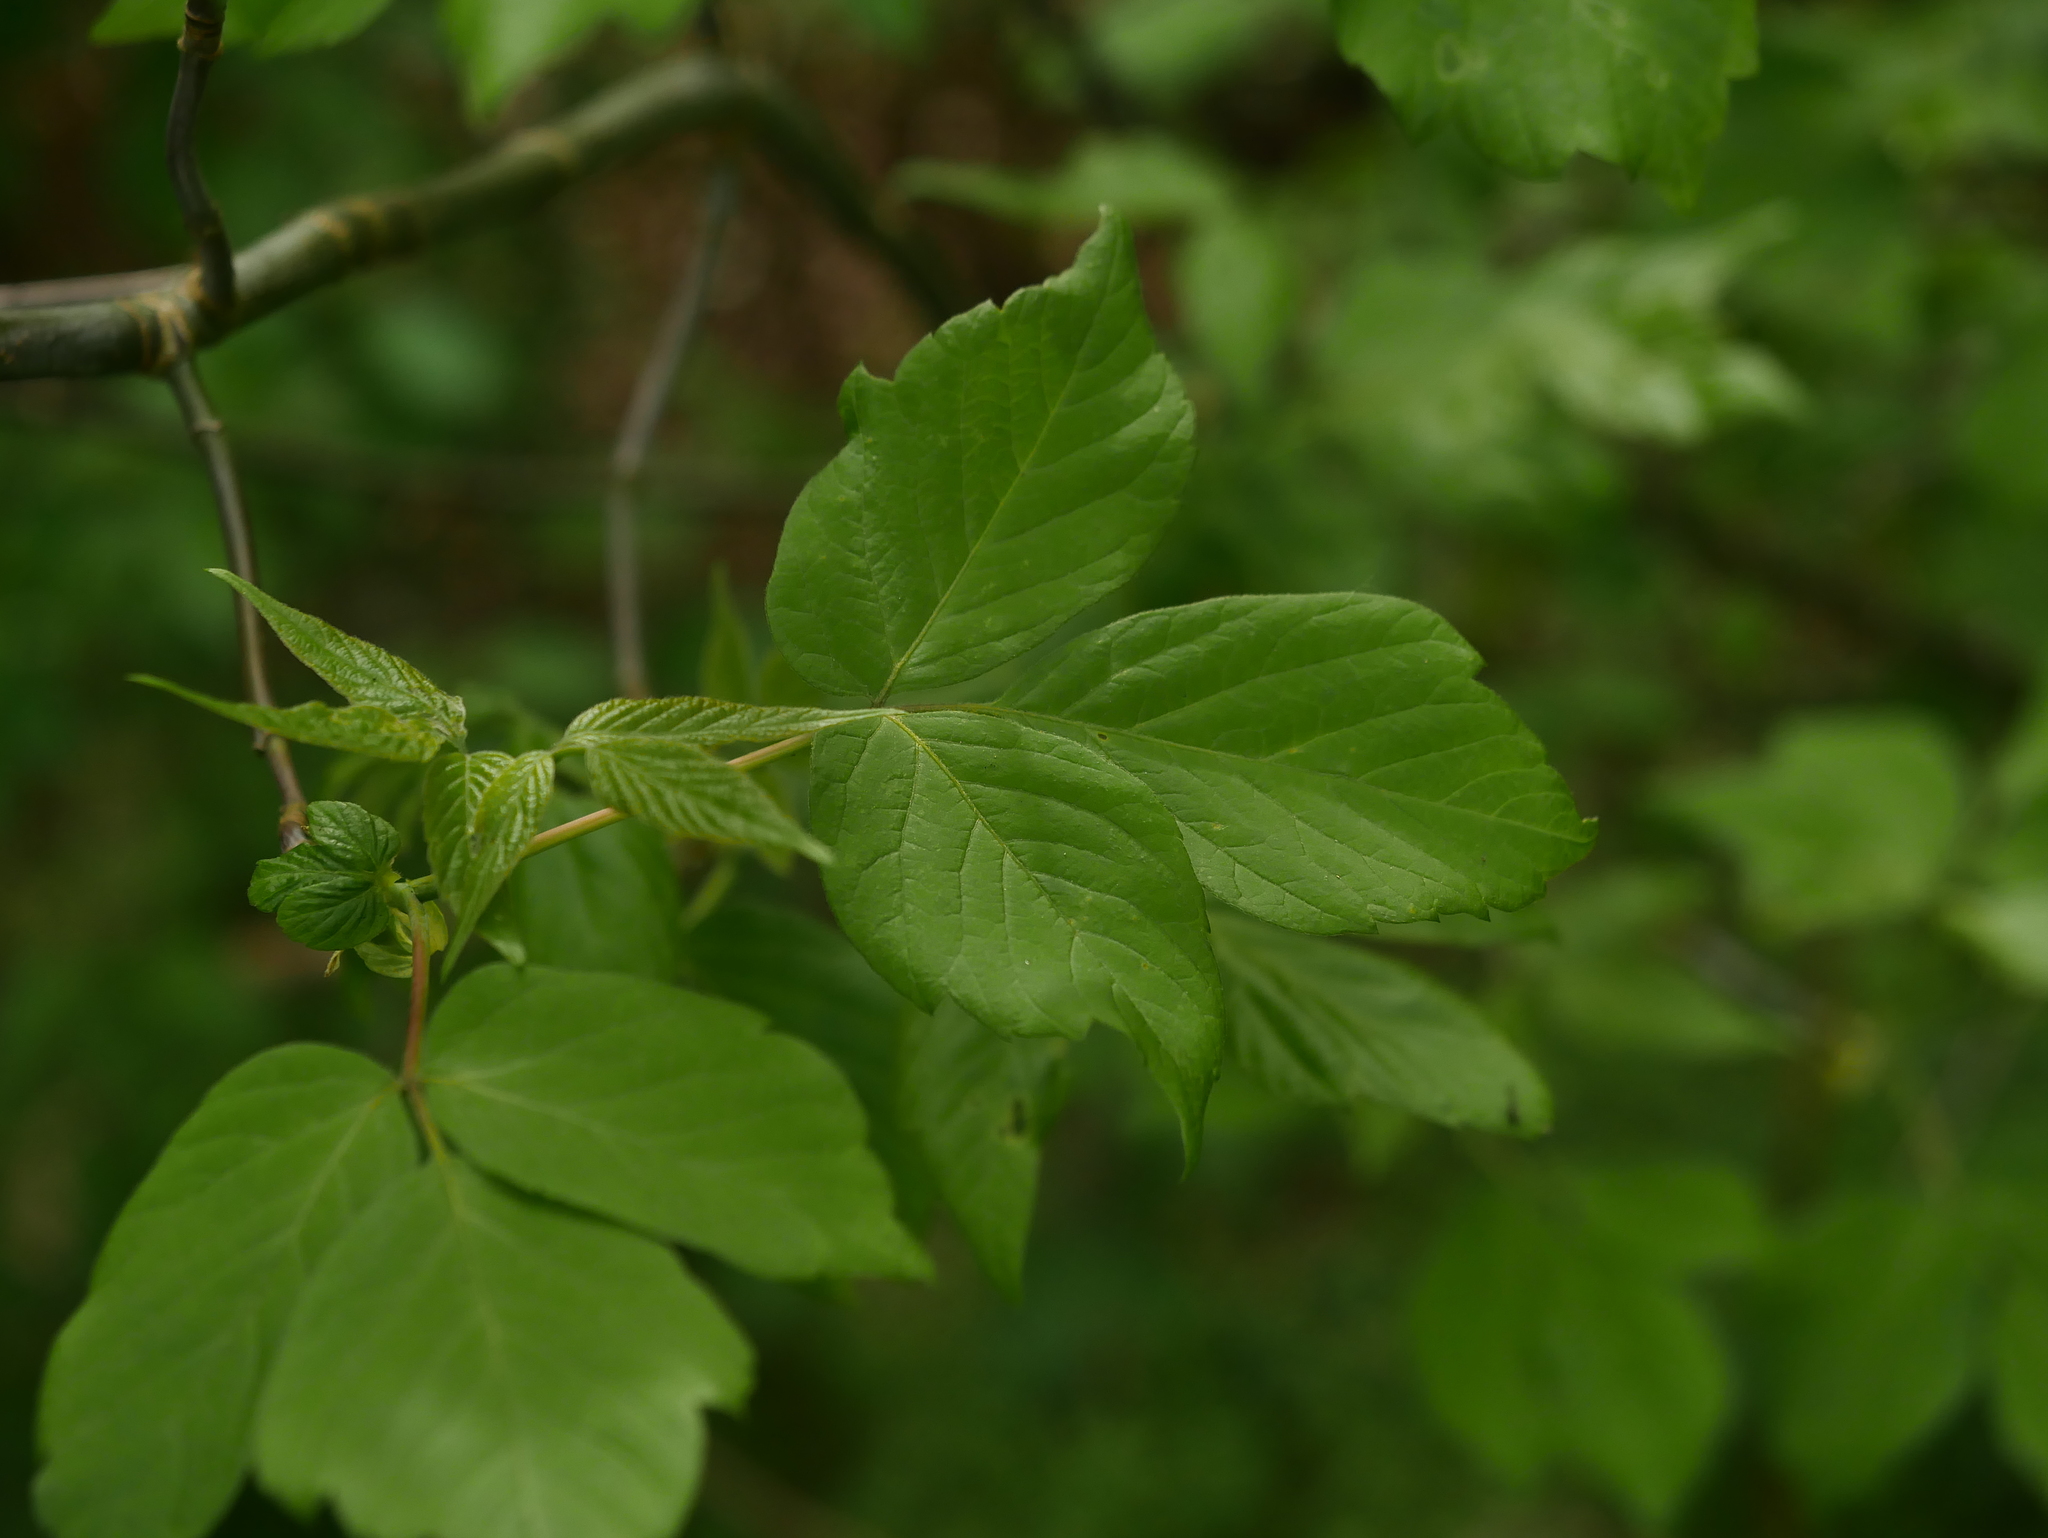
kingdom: Plantae
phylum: Tracheophyta
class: Magnoliopsida
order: Sapindales
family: Sapindaceae
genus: Acer
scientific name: Acer negundo
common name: Ashleaf maple
